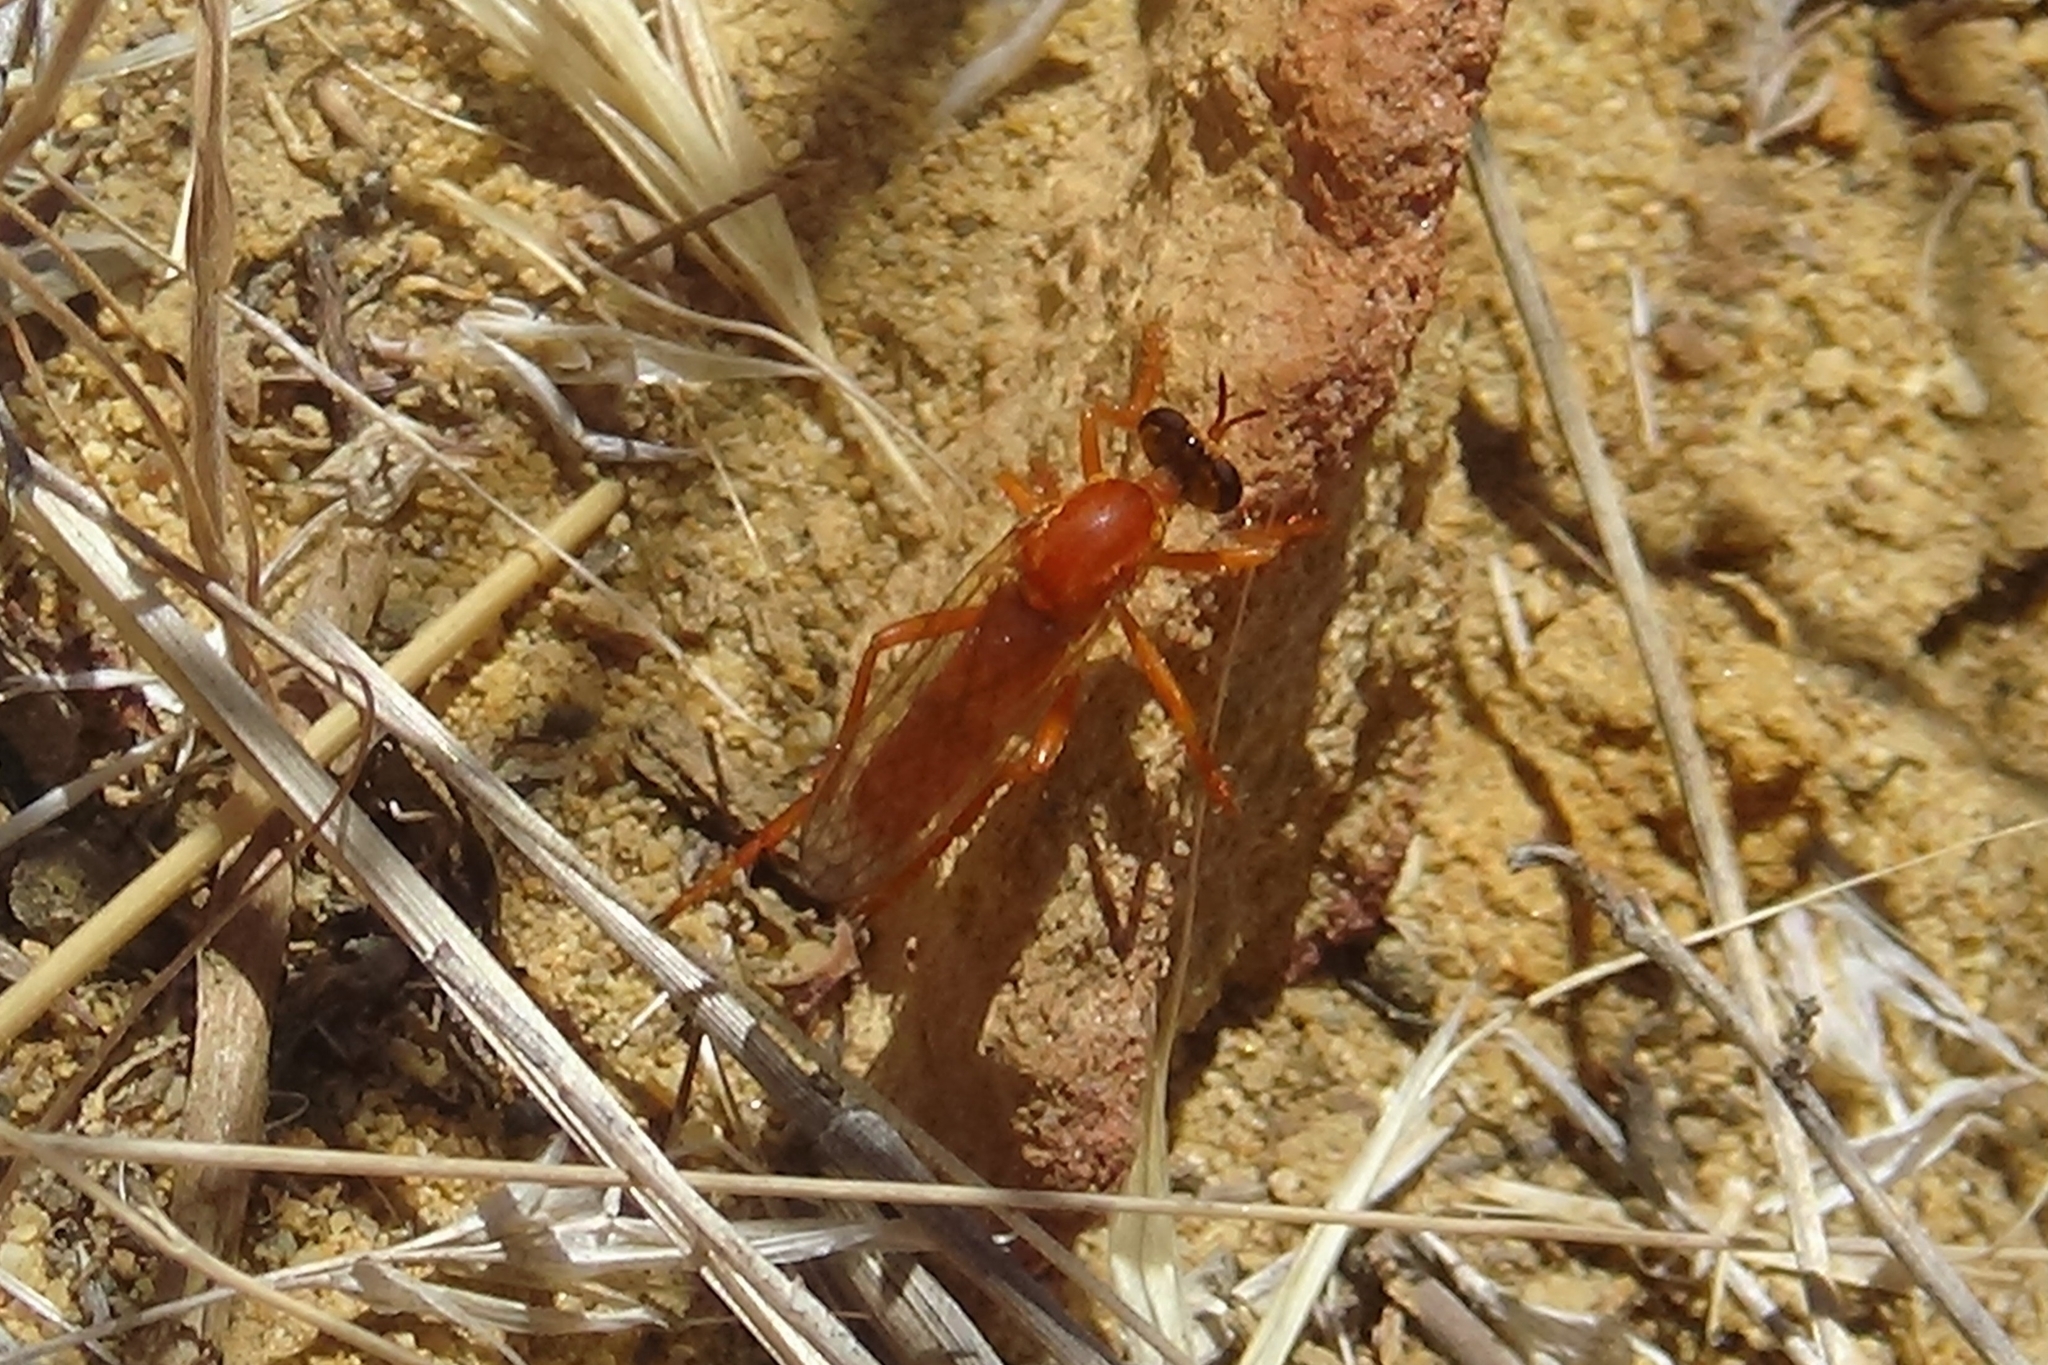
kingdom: Animalia
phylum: Arthropoda
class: Insecta
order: Diptera
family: Asilidae
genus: Saropogon
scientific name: Saropogon luteus
